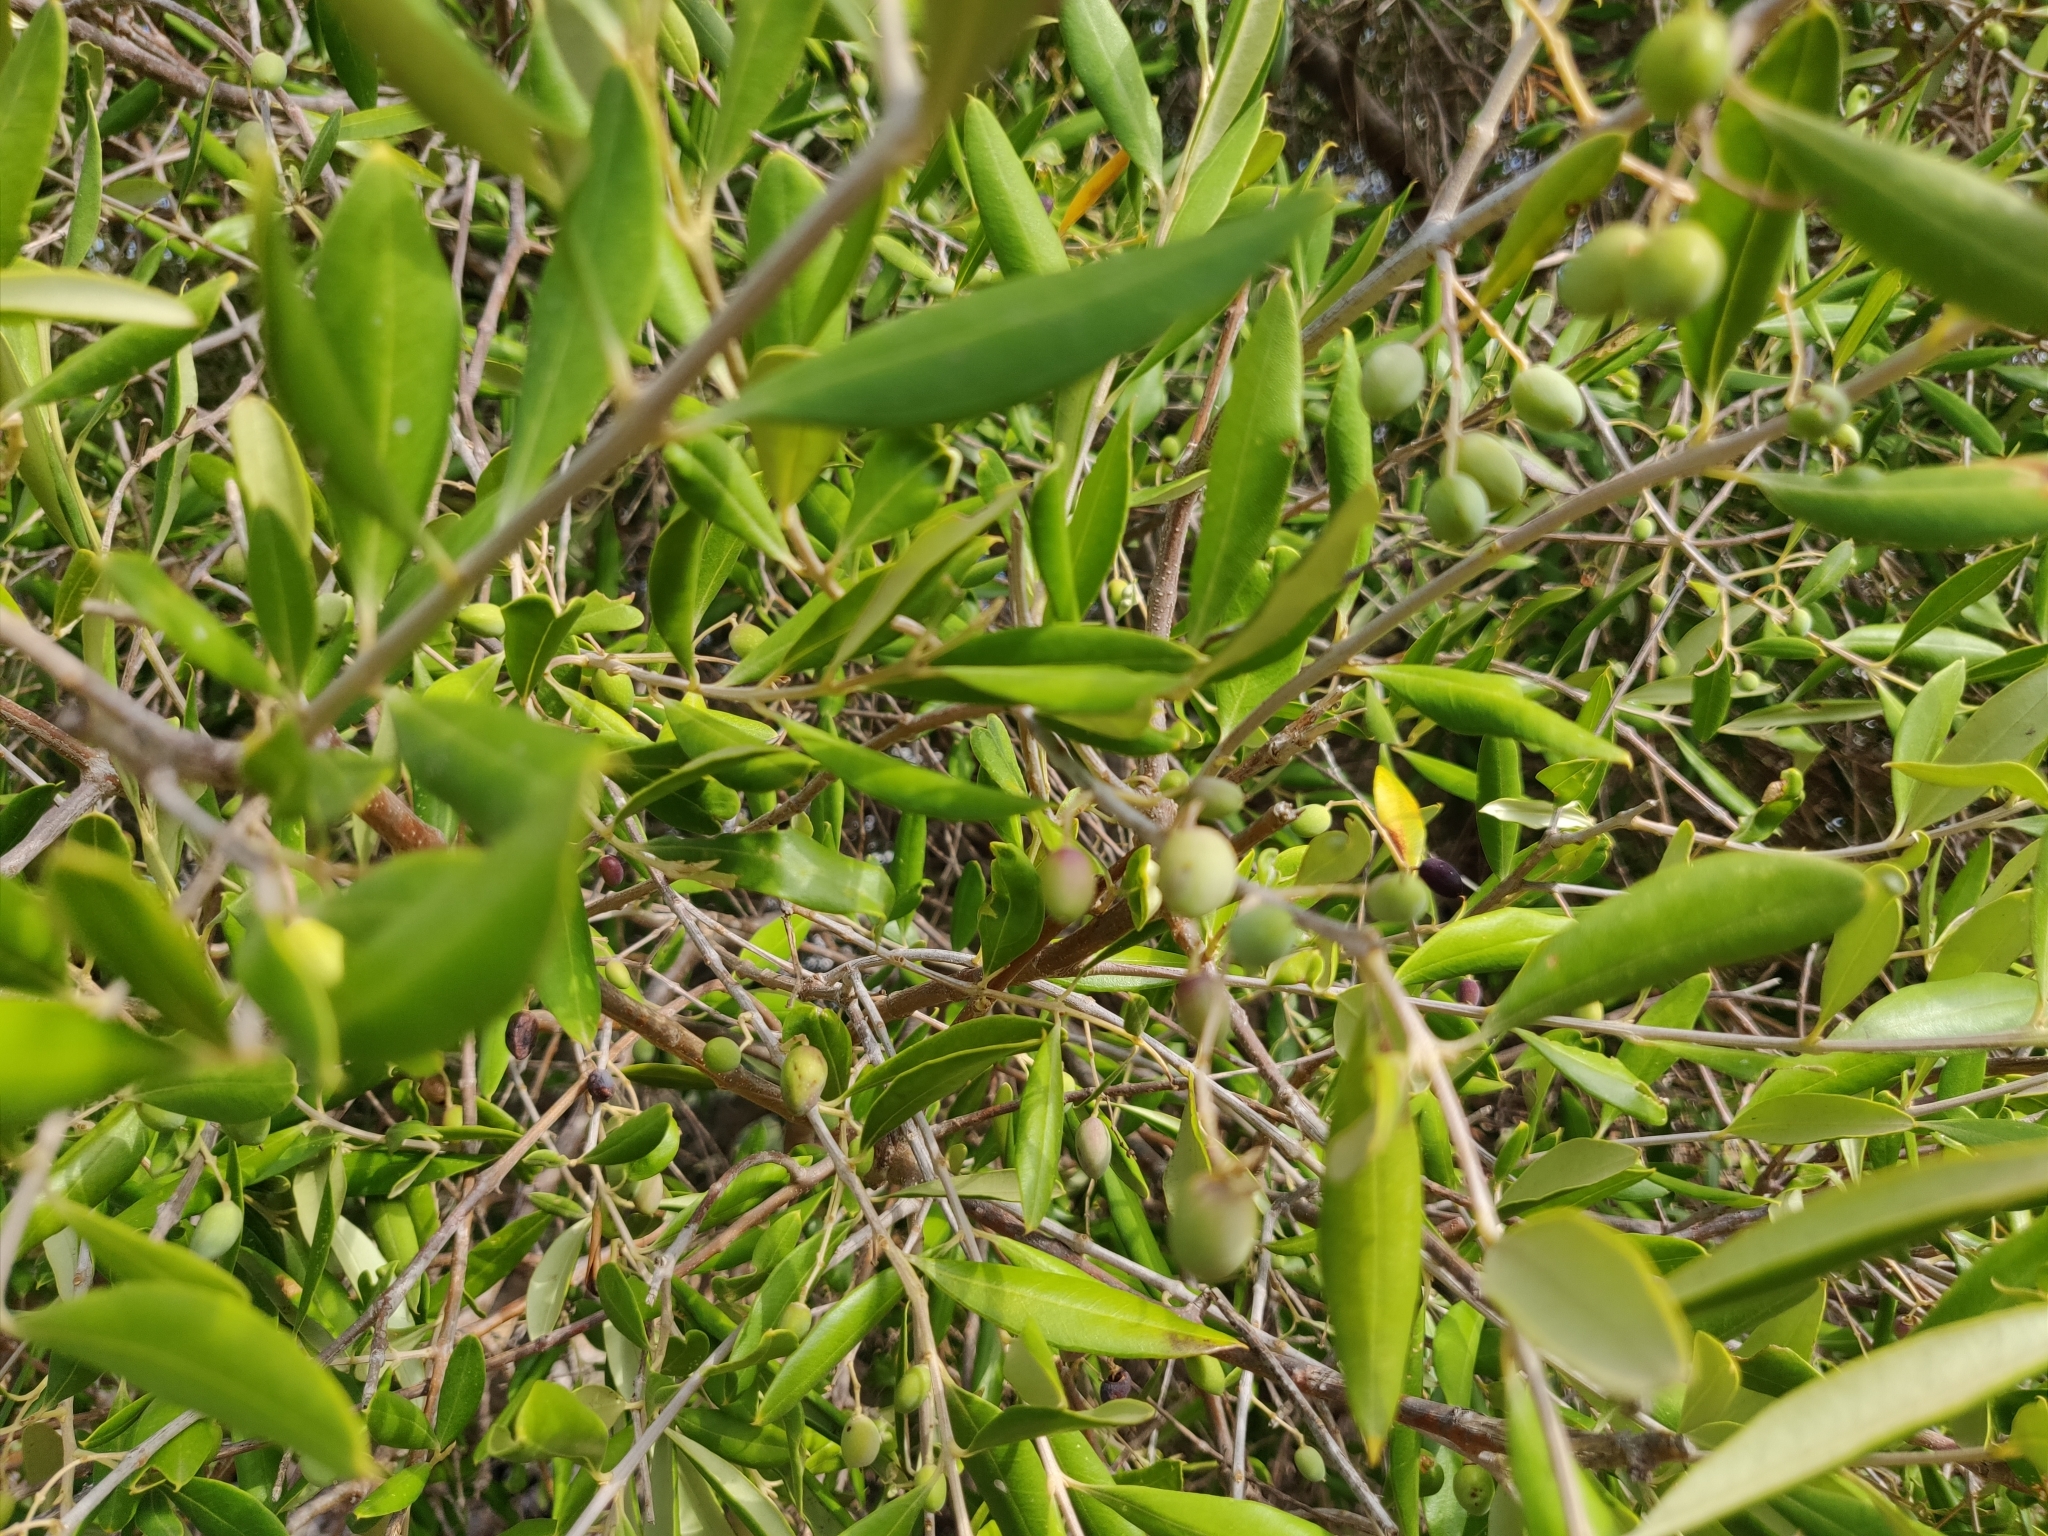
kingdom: Plantae
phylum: Tracheophyta
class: Magnoliopsida
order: Lamiales
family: Oleaceae
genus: Olea
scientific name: Olea europaea
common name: Olive
